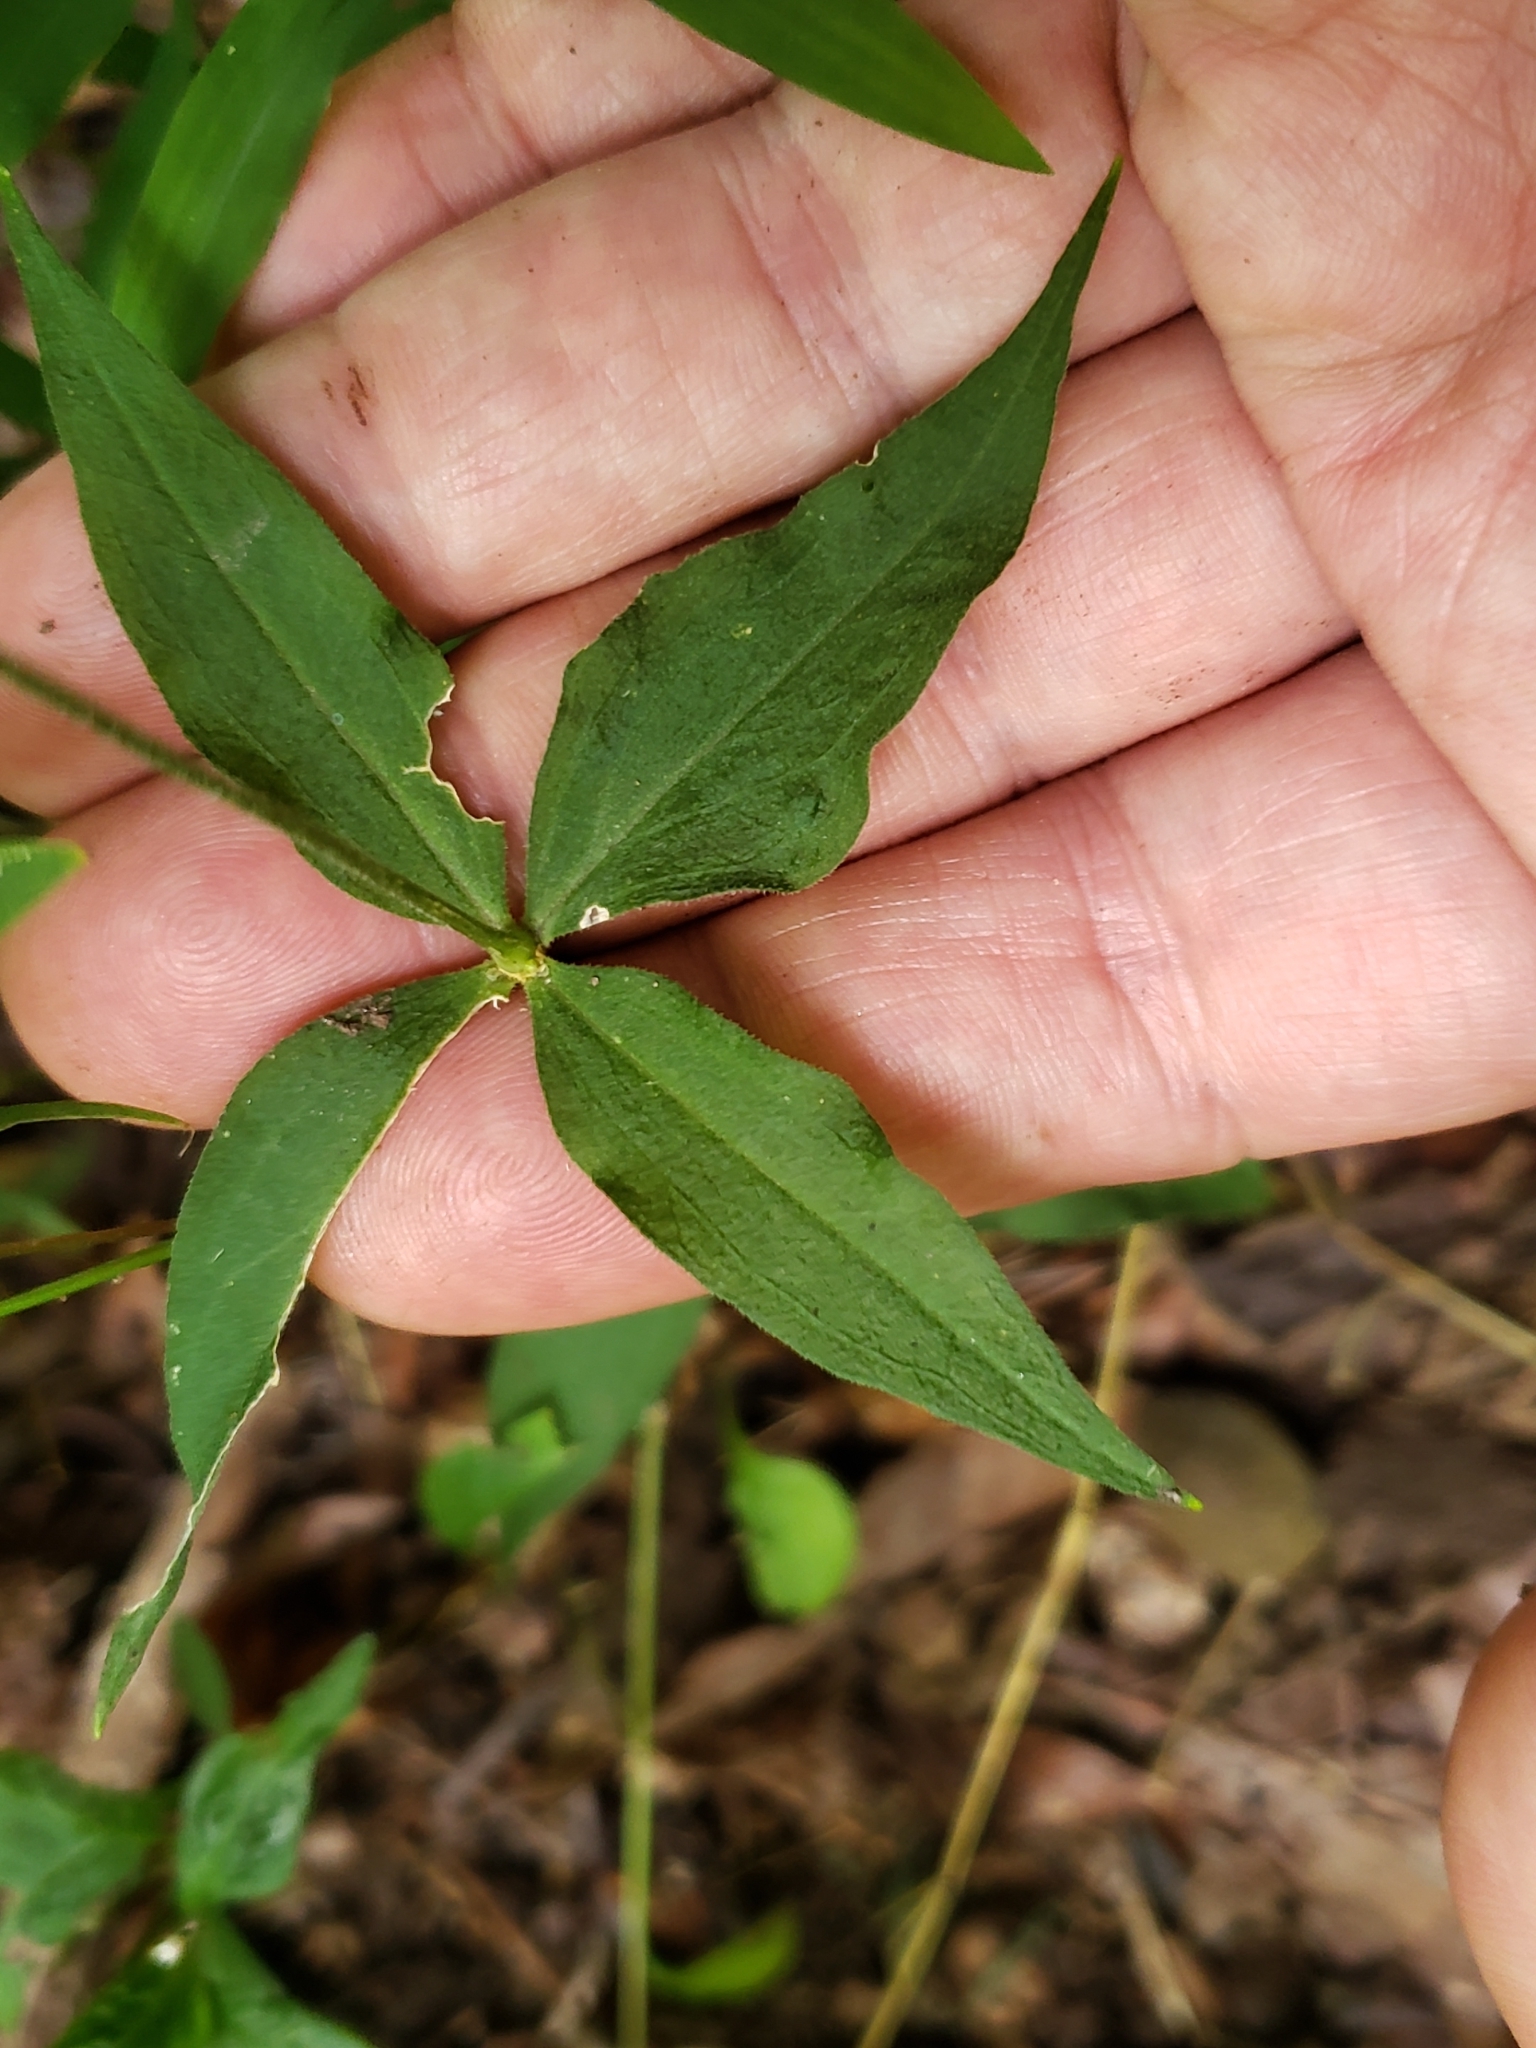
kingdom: Plantae
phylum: Tracheophyta
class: Magnoliopsida
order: Caryophyllales
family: Caryophyllaceae
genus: Silene
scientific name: Silene stellata
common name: Starry campion
